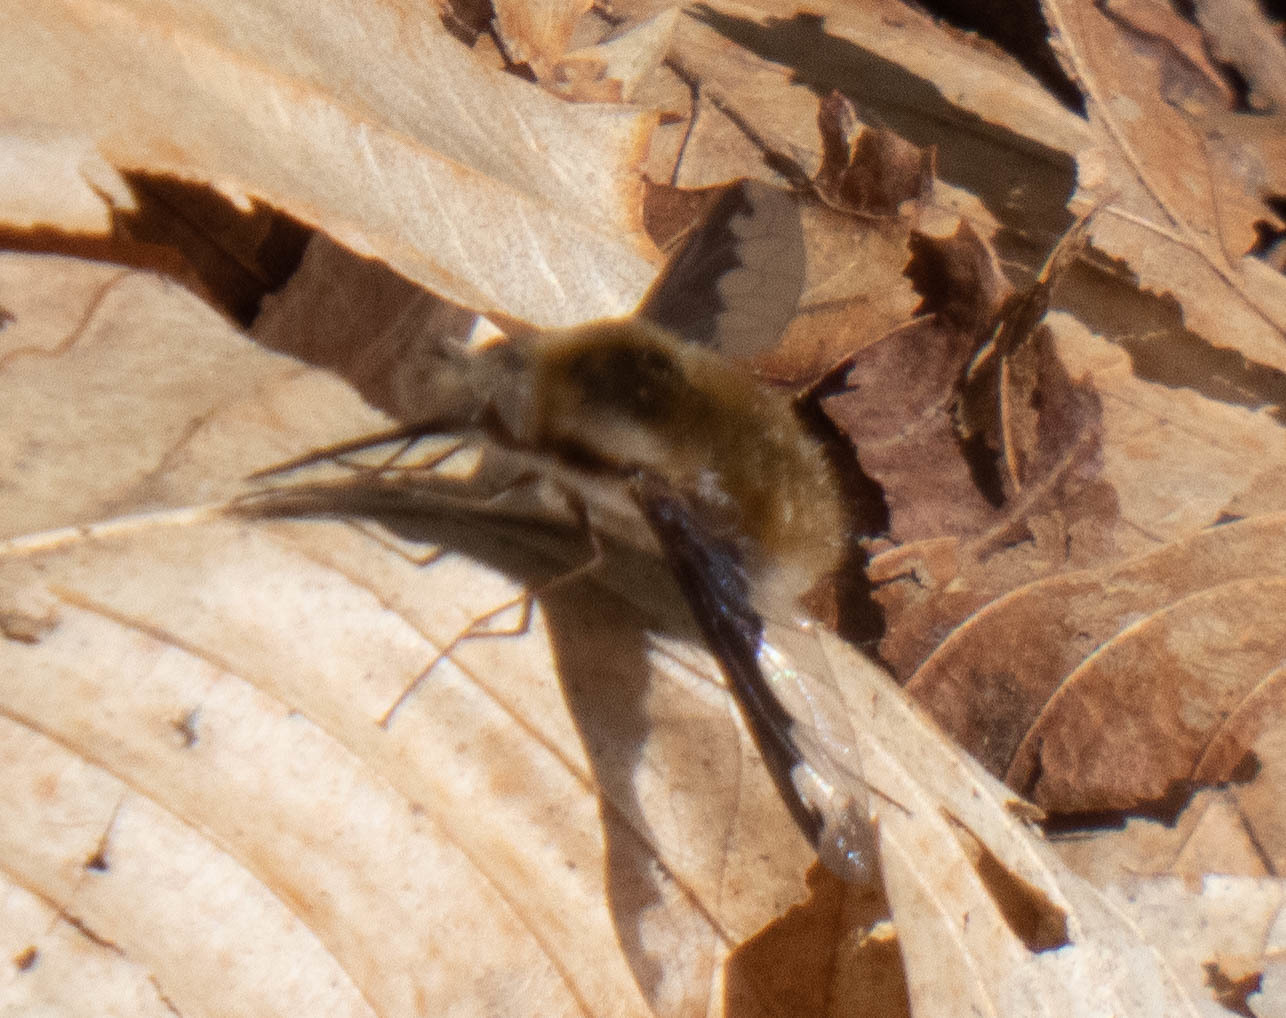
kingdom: Animalia
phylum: Arthropoda
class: Insecta
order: Diptera
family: Bombyliidae
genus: Bombylius
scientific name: Bombylius major
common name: Bee fly
